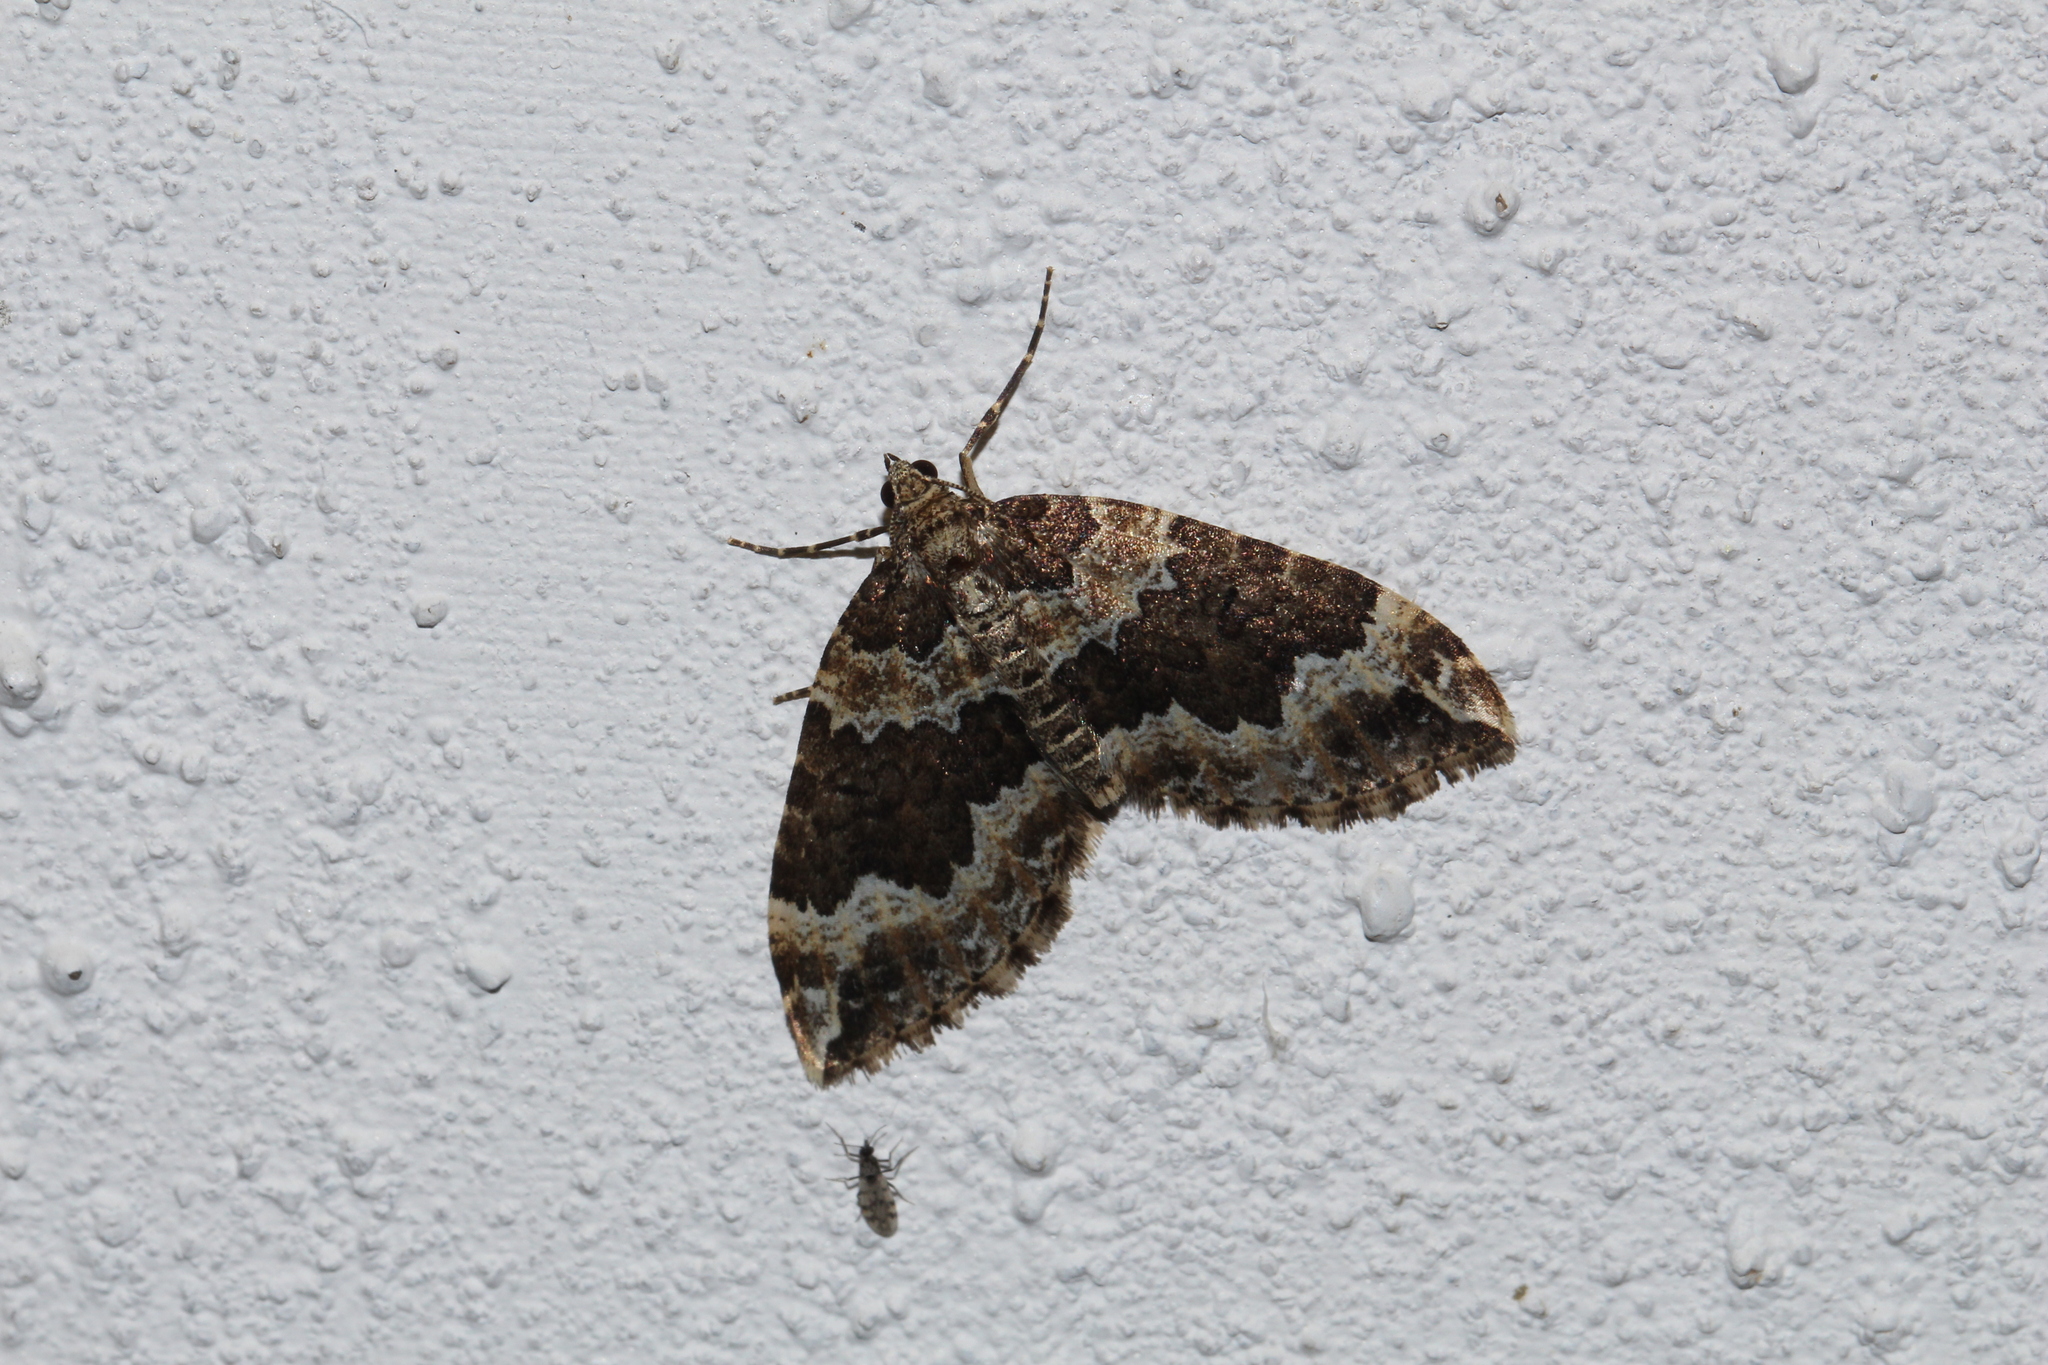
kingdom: Animalia
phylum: Arthropoda
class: Insecta
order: Lepidoptera
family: Geometridae
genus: Lampropteryx
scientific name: Lampropteryx suffumata
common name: Water carpet
